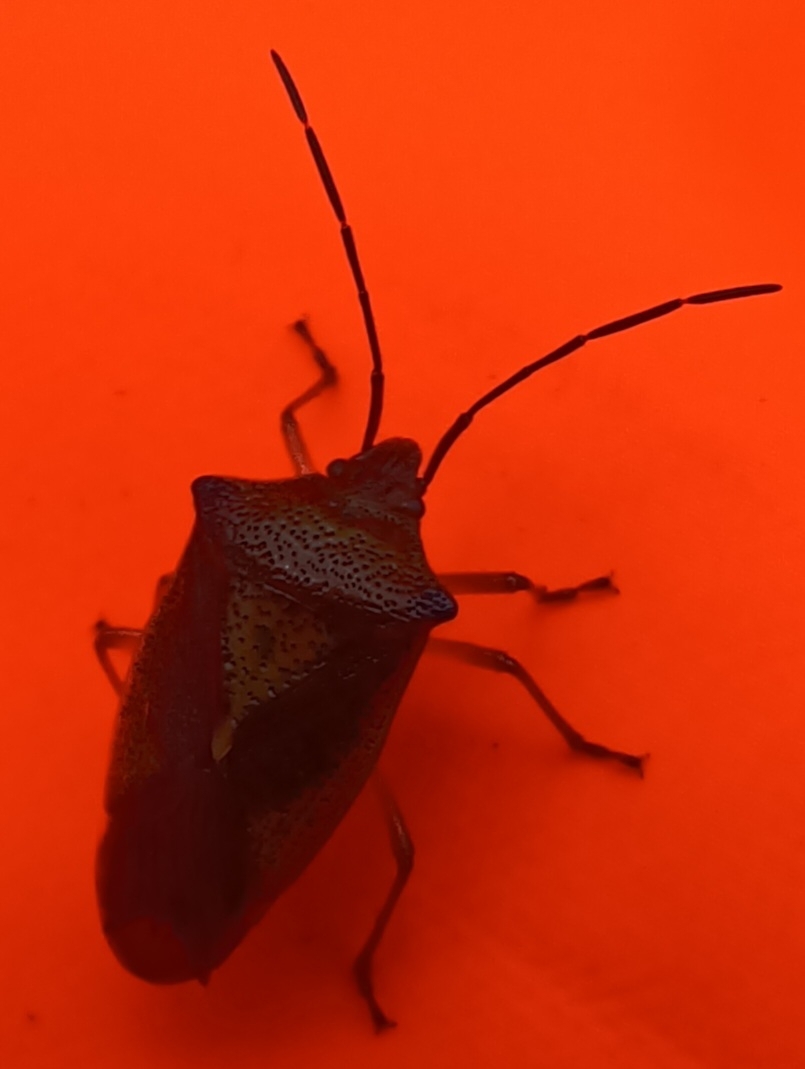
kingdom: Animalia
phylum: Arthropoda
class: Insecta
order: Hemiptera
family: Acanthosomatidae
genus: Acanthosoma
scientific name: Acanthosoma haemorrhoidale
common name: Hawthorn shieldbug
